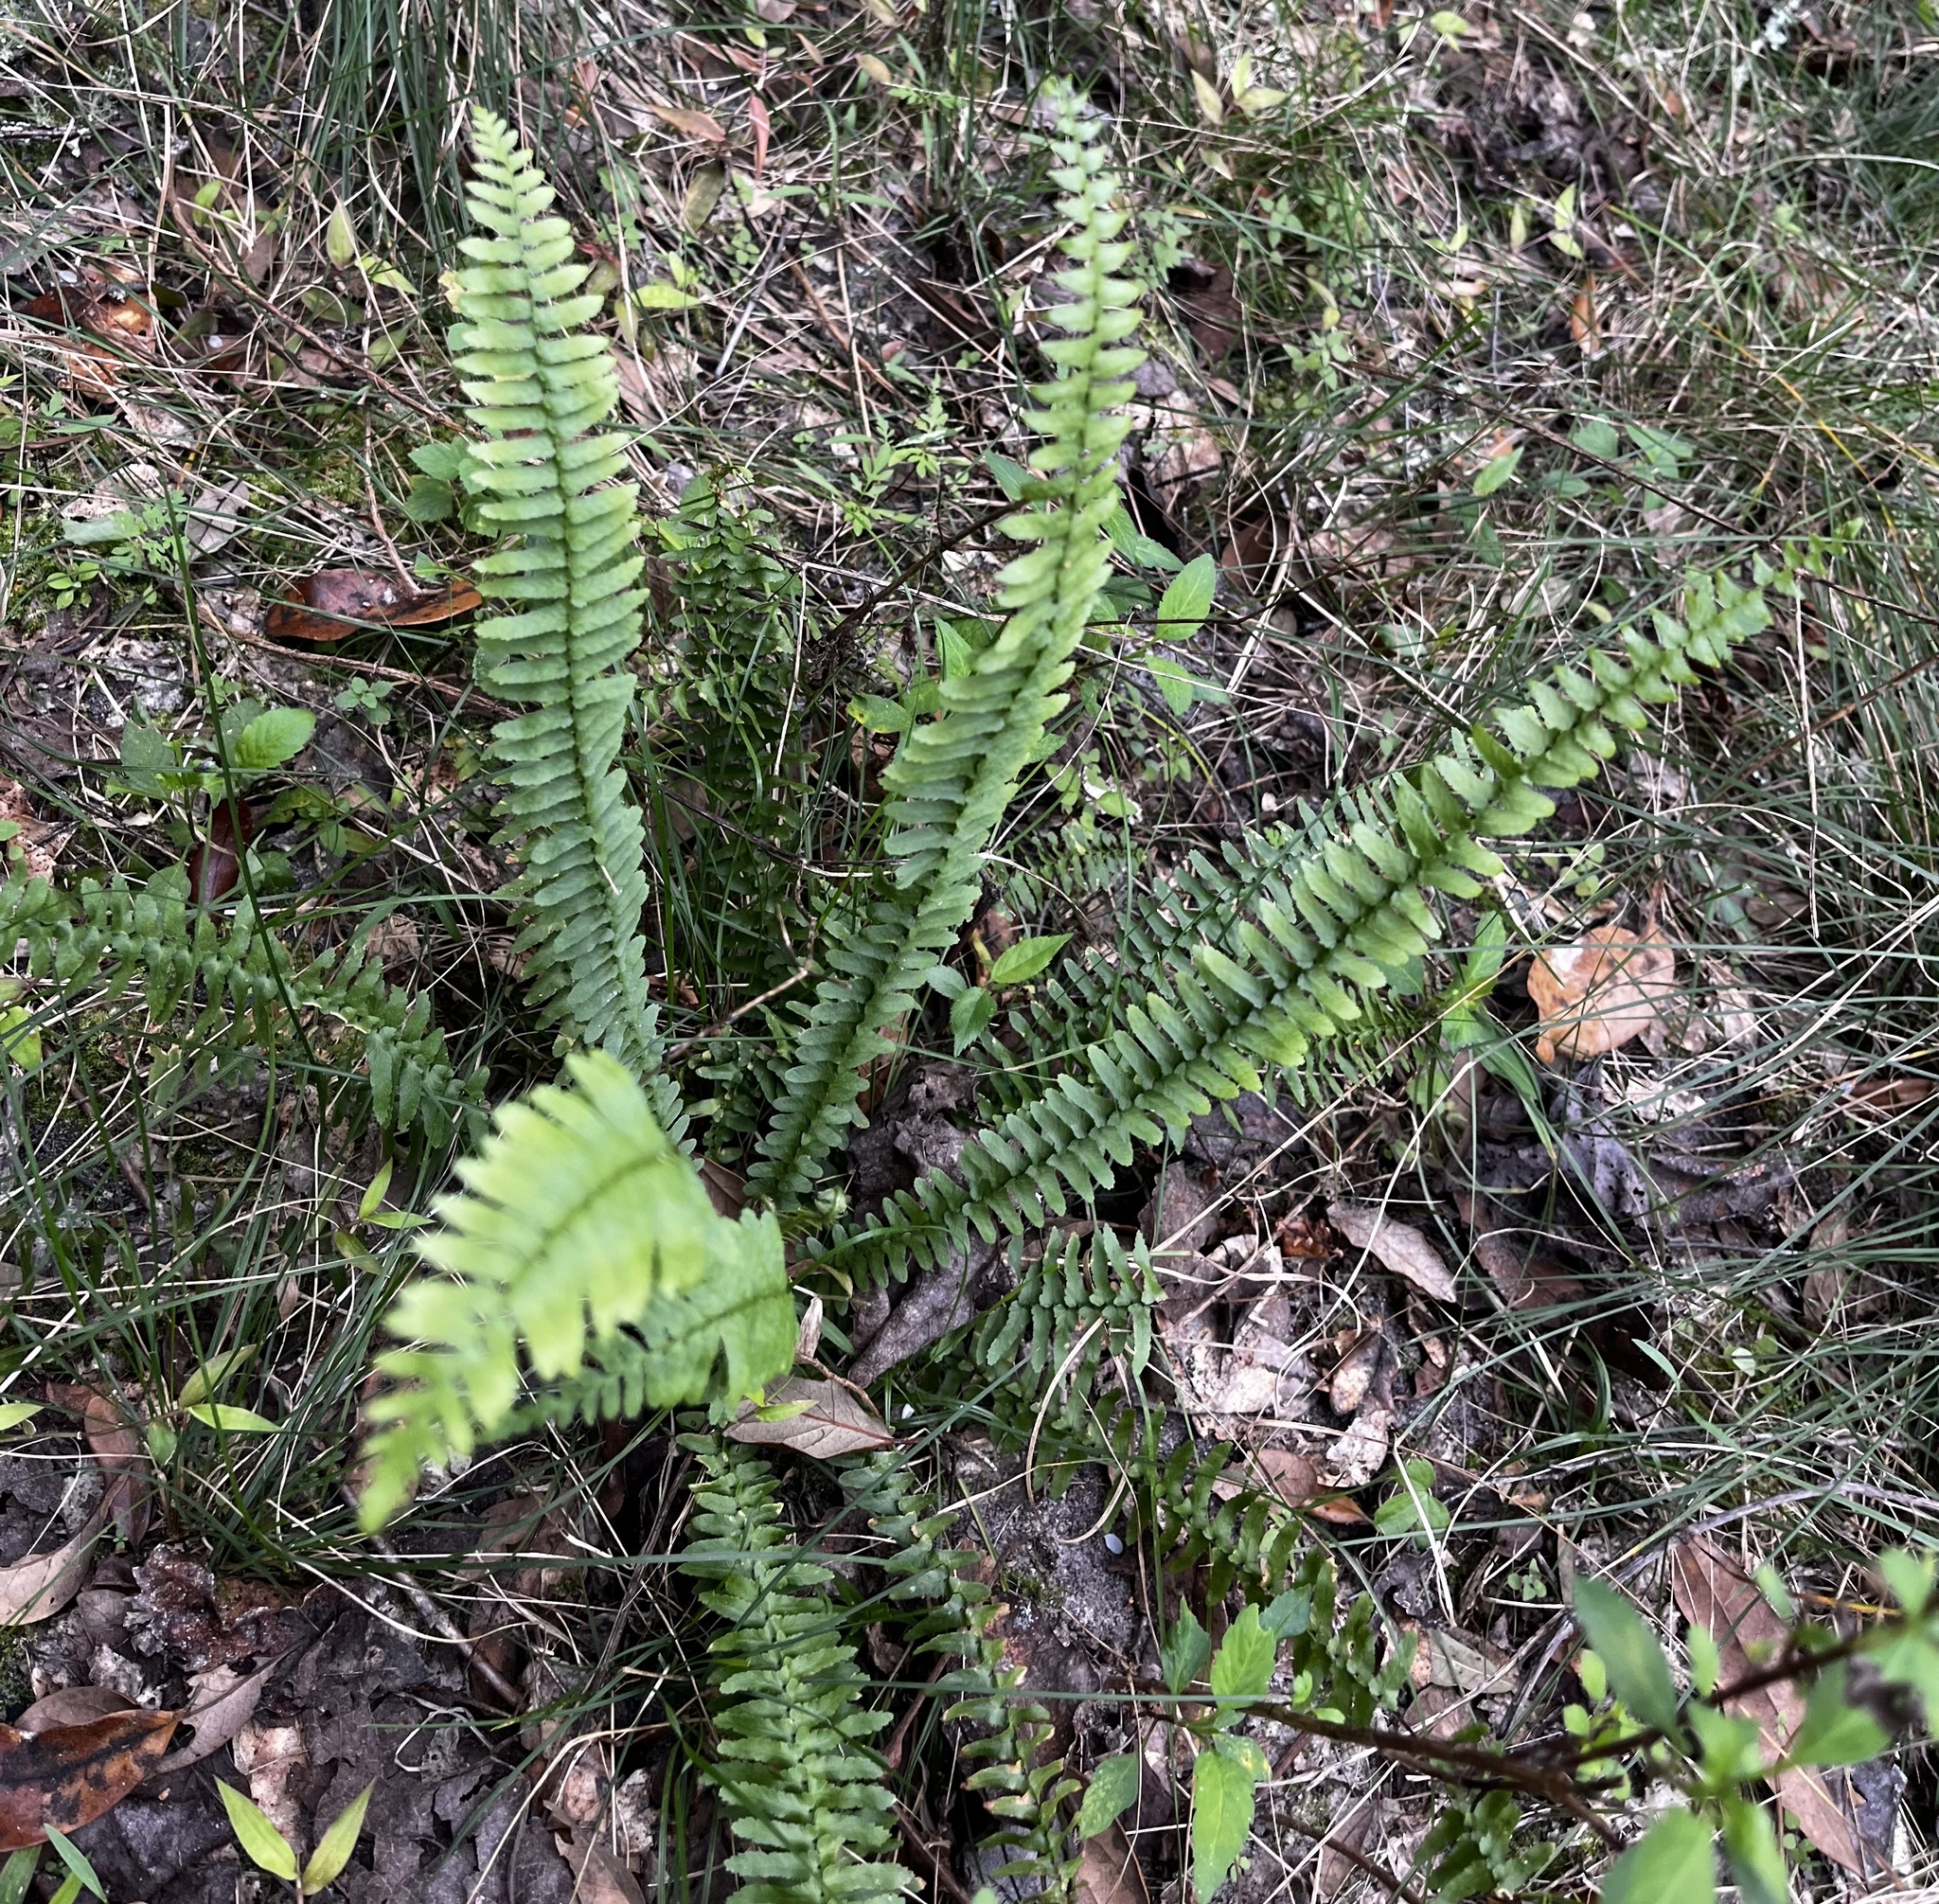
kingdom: Plantae
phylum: Tracheophyta
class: Polypodiopsida
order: Polypodiales
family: Aspleniaceae
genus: Asplenium
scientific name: Asplenium platyneuron
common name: Ebony spleenwort
